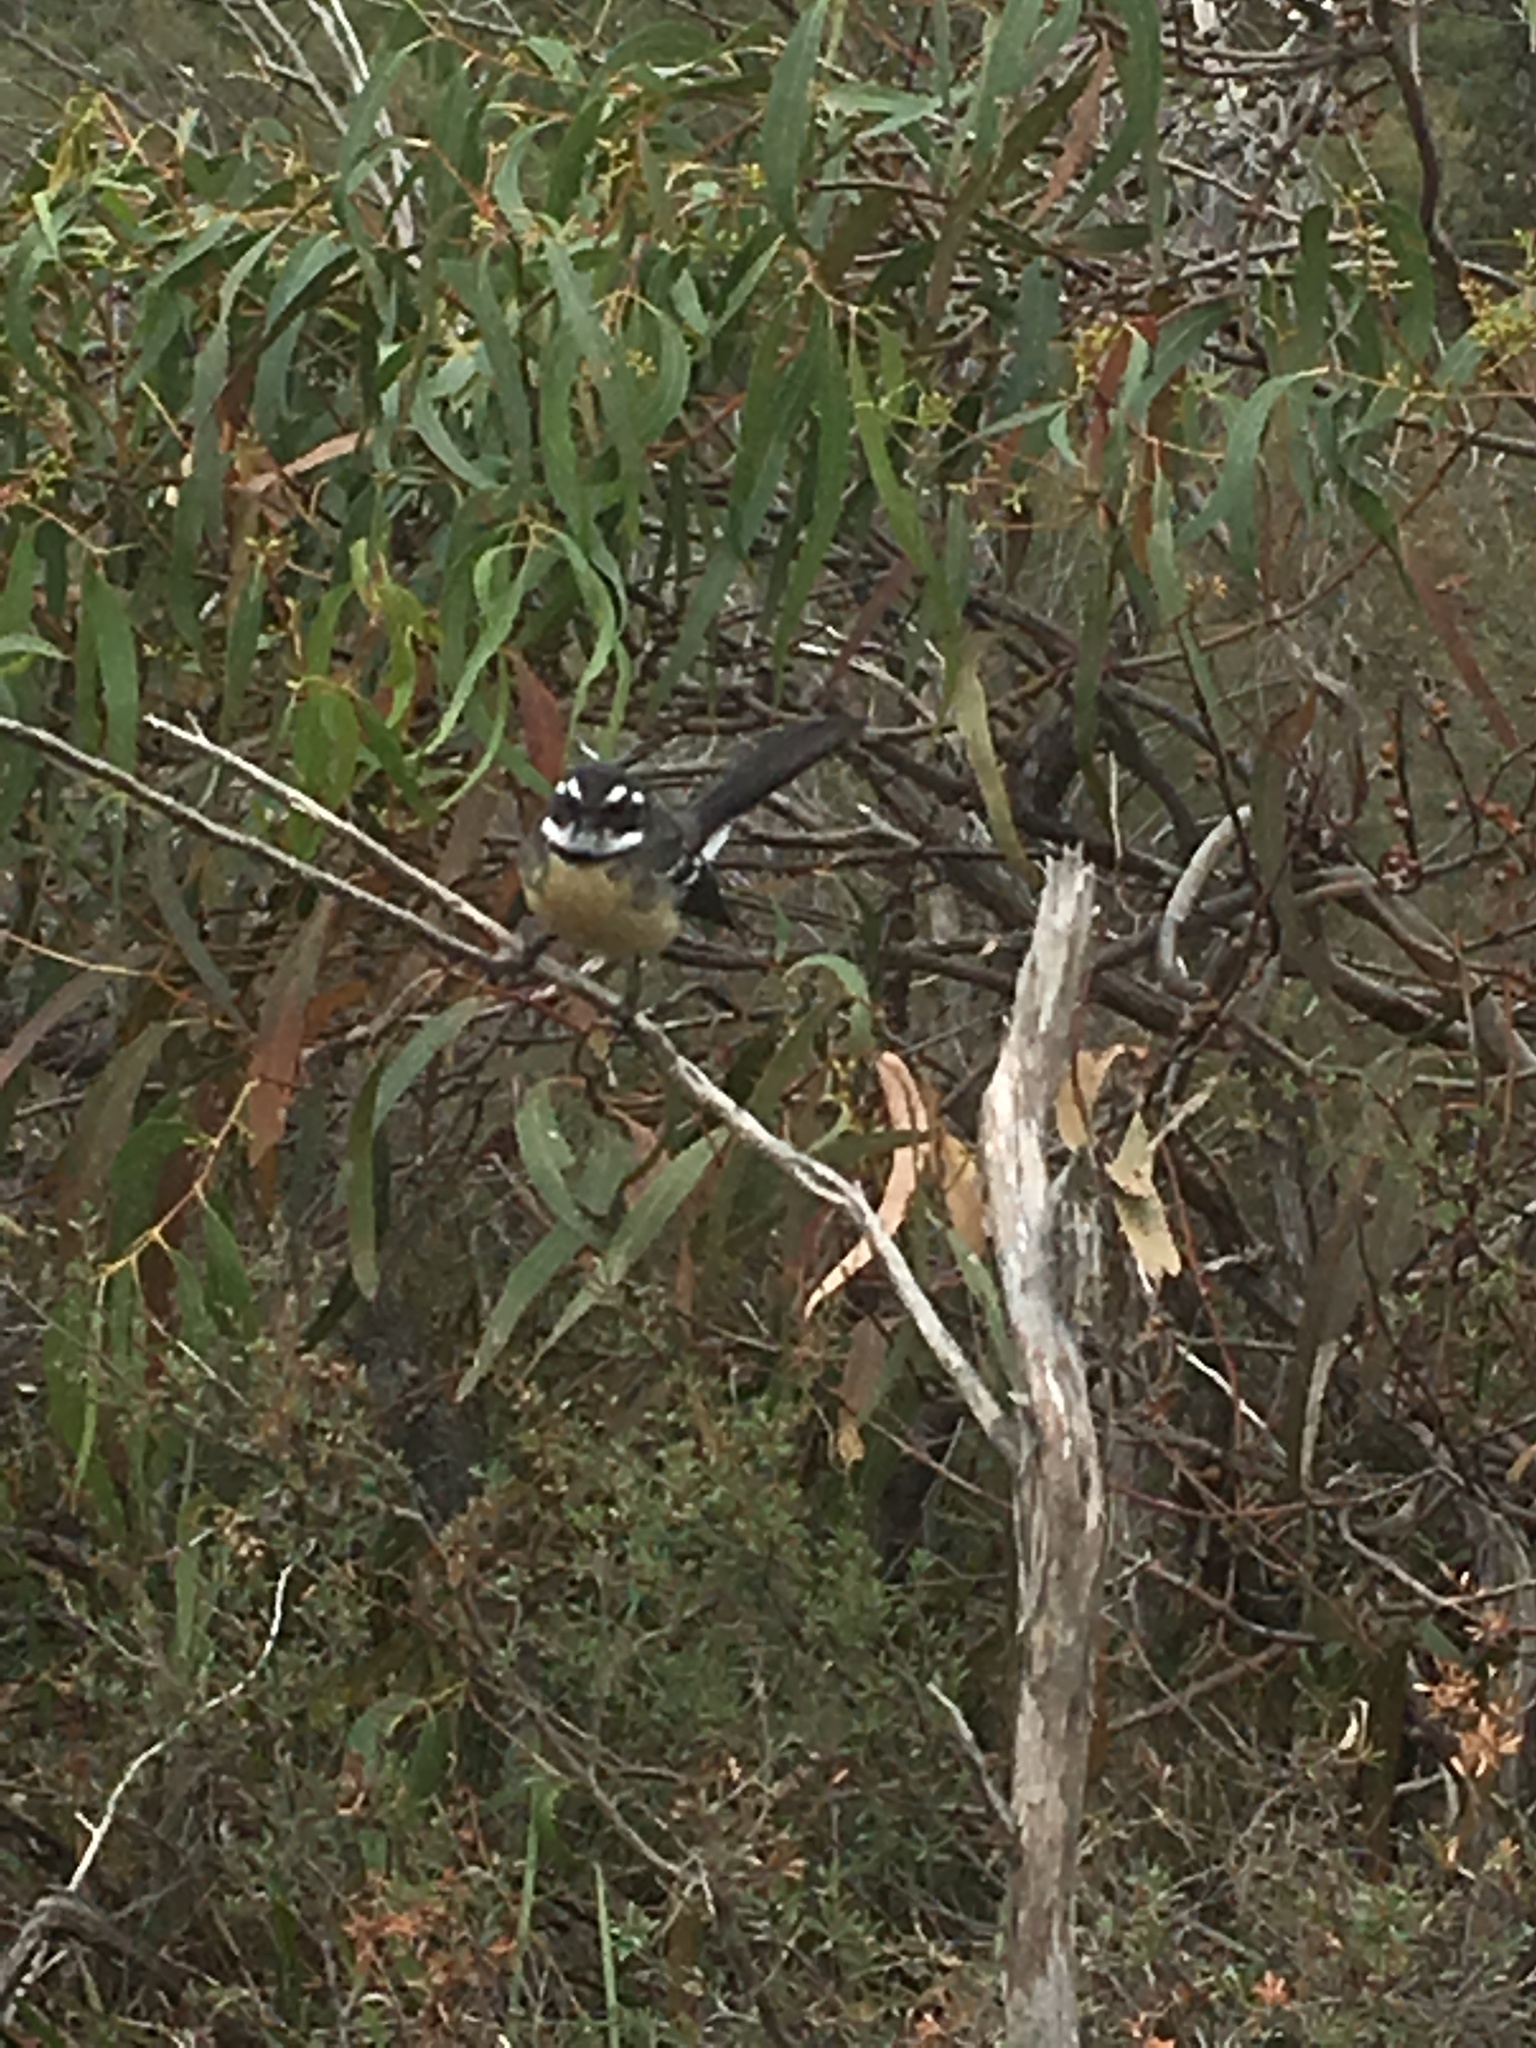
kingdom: Animalia
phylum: Chordata
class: Aves
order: Passeriformes
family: Rhipiduridae
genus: Rhipidura
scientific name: Rhipidura albiscapa
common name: Grey fantail
